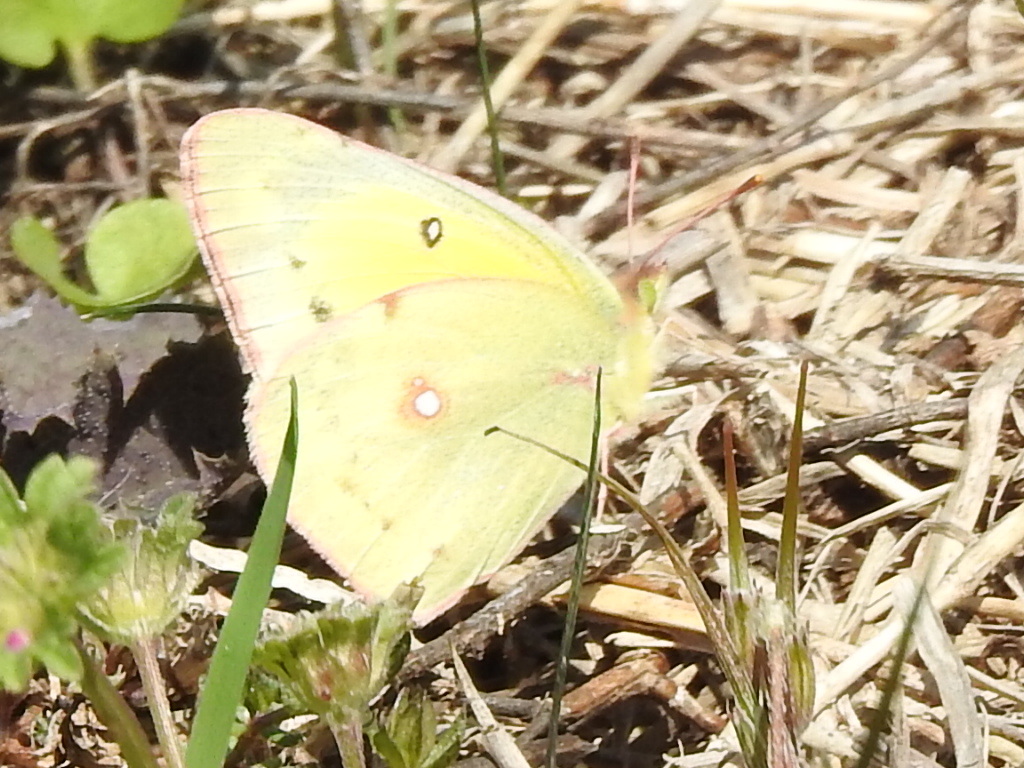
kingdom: Animalia
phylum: Arthropoda
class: Insecta
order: Lepidoptera
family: Pieridae
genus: Colias
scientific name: Colias eurytheme
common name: Alfalfa butterfly
